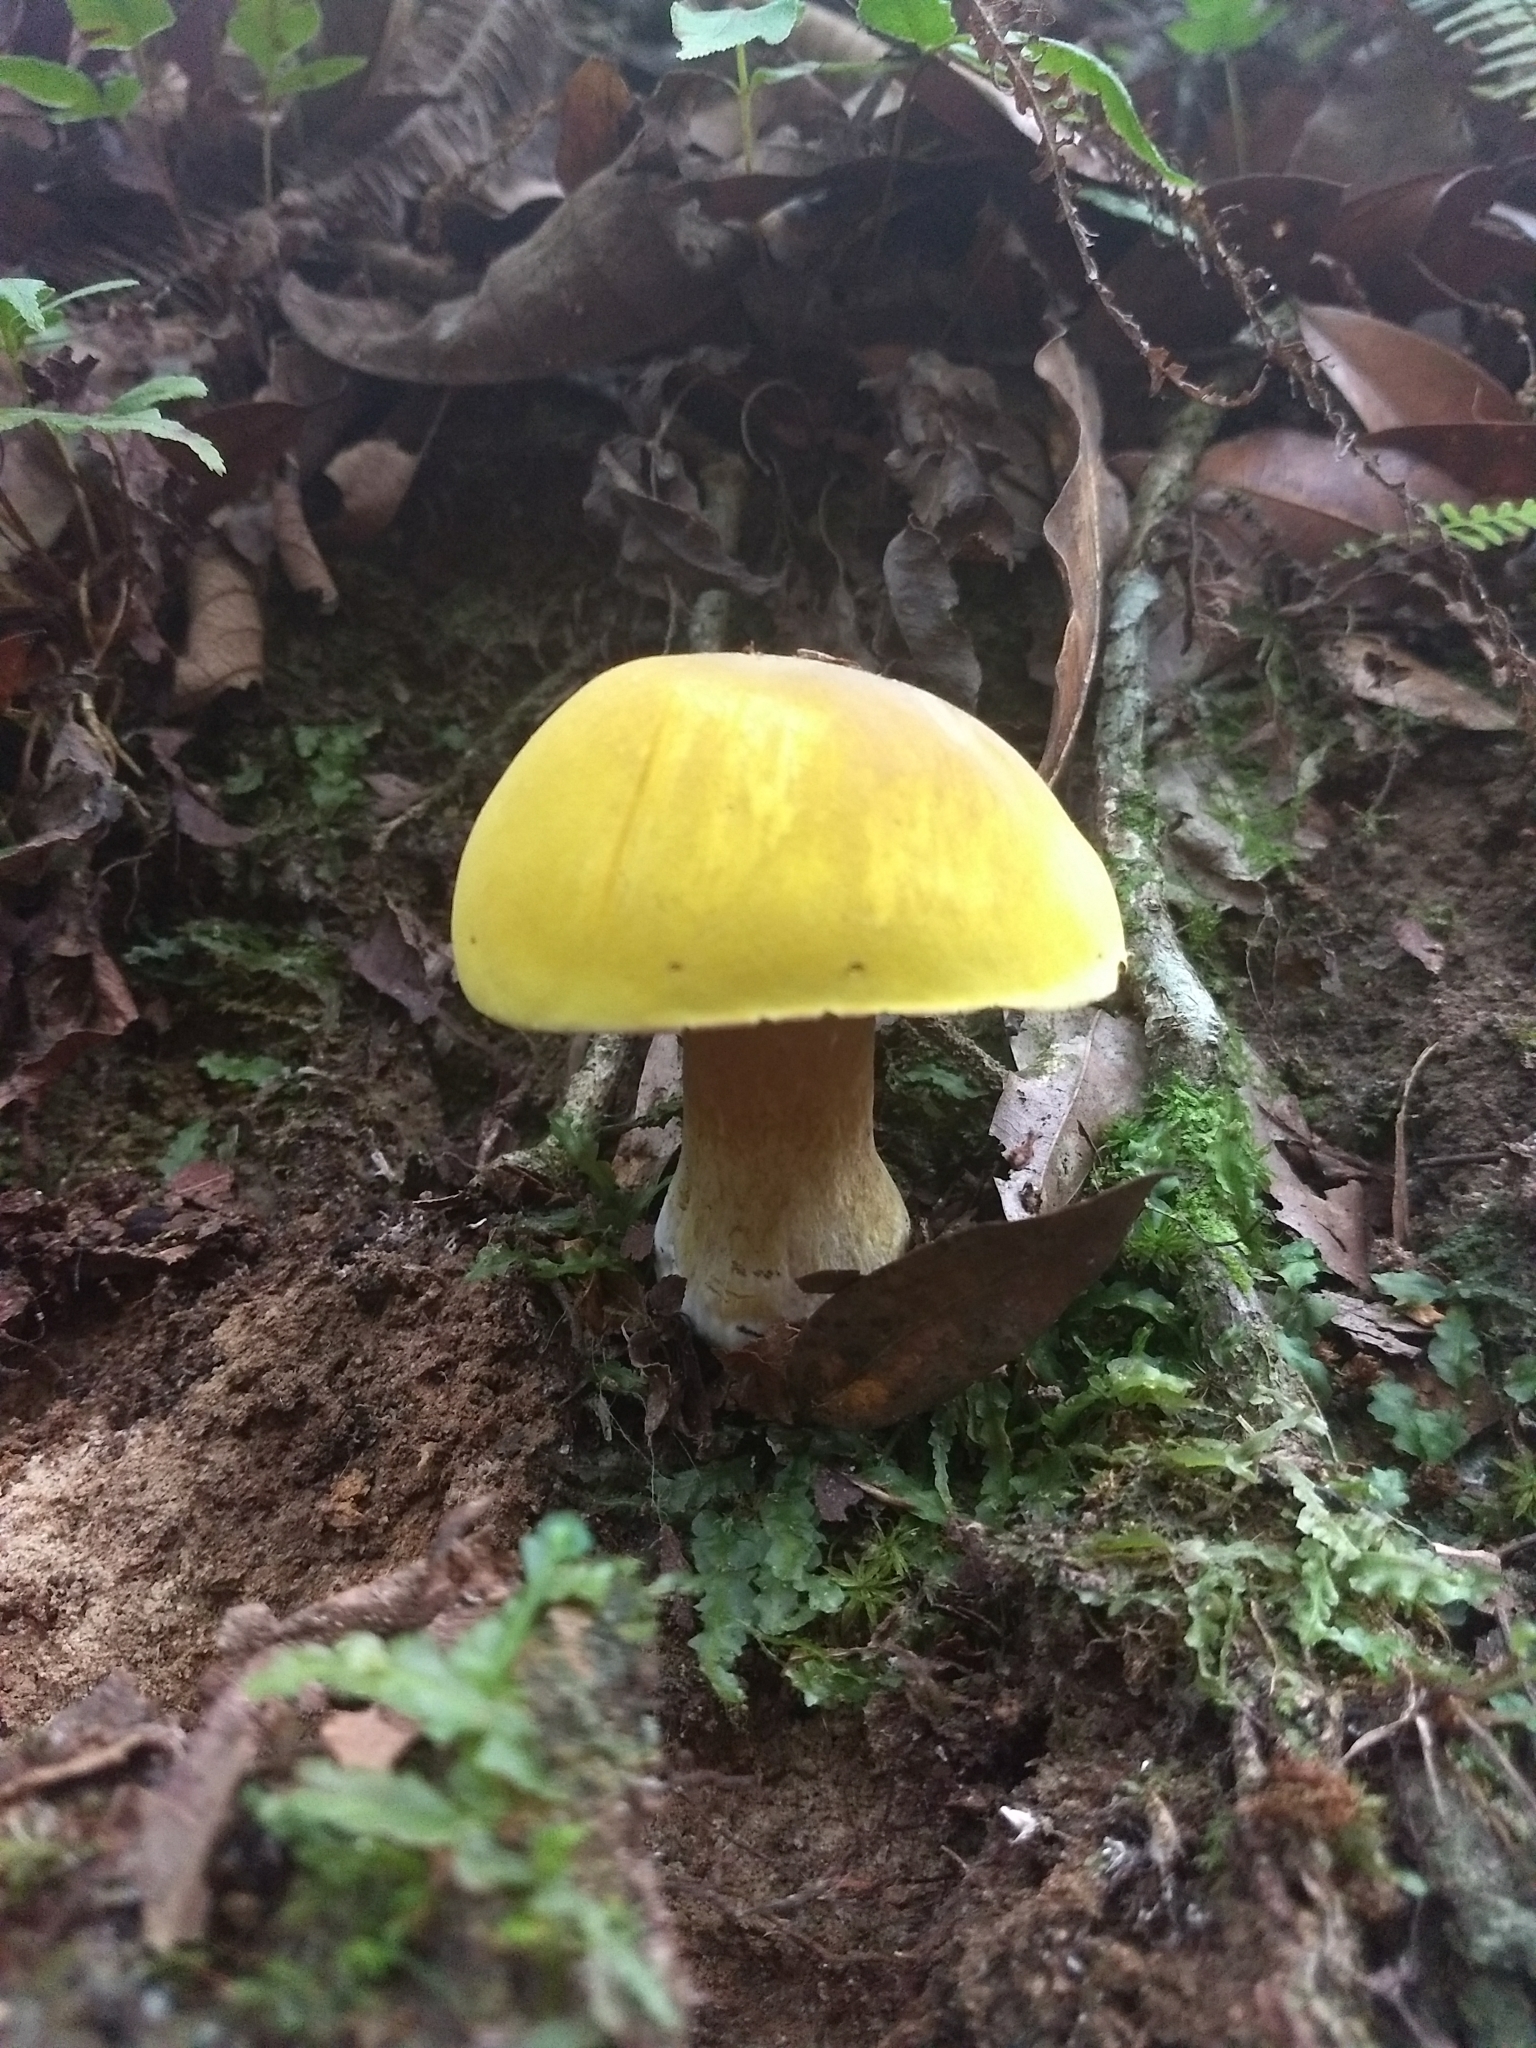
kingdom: Fungi
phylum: Basidiomycota
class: Agaricomycetes
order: Boletales
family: Boletaceae
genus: Boletus
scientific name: Boletus edulis
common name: Cep
